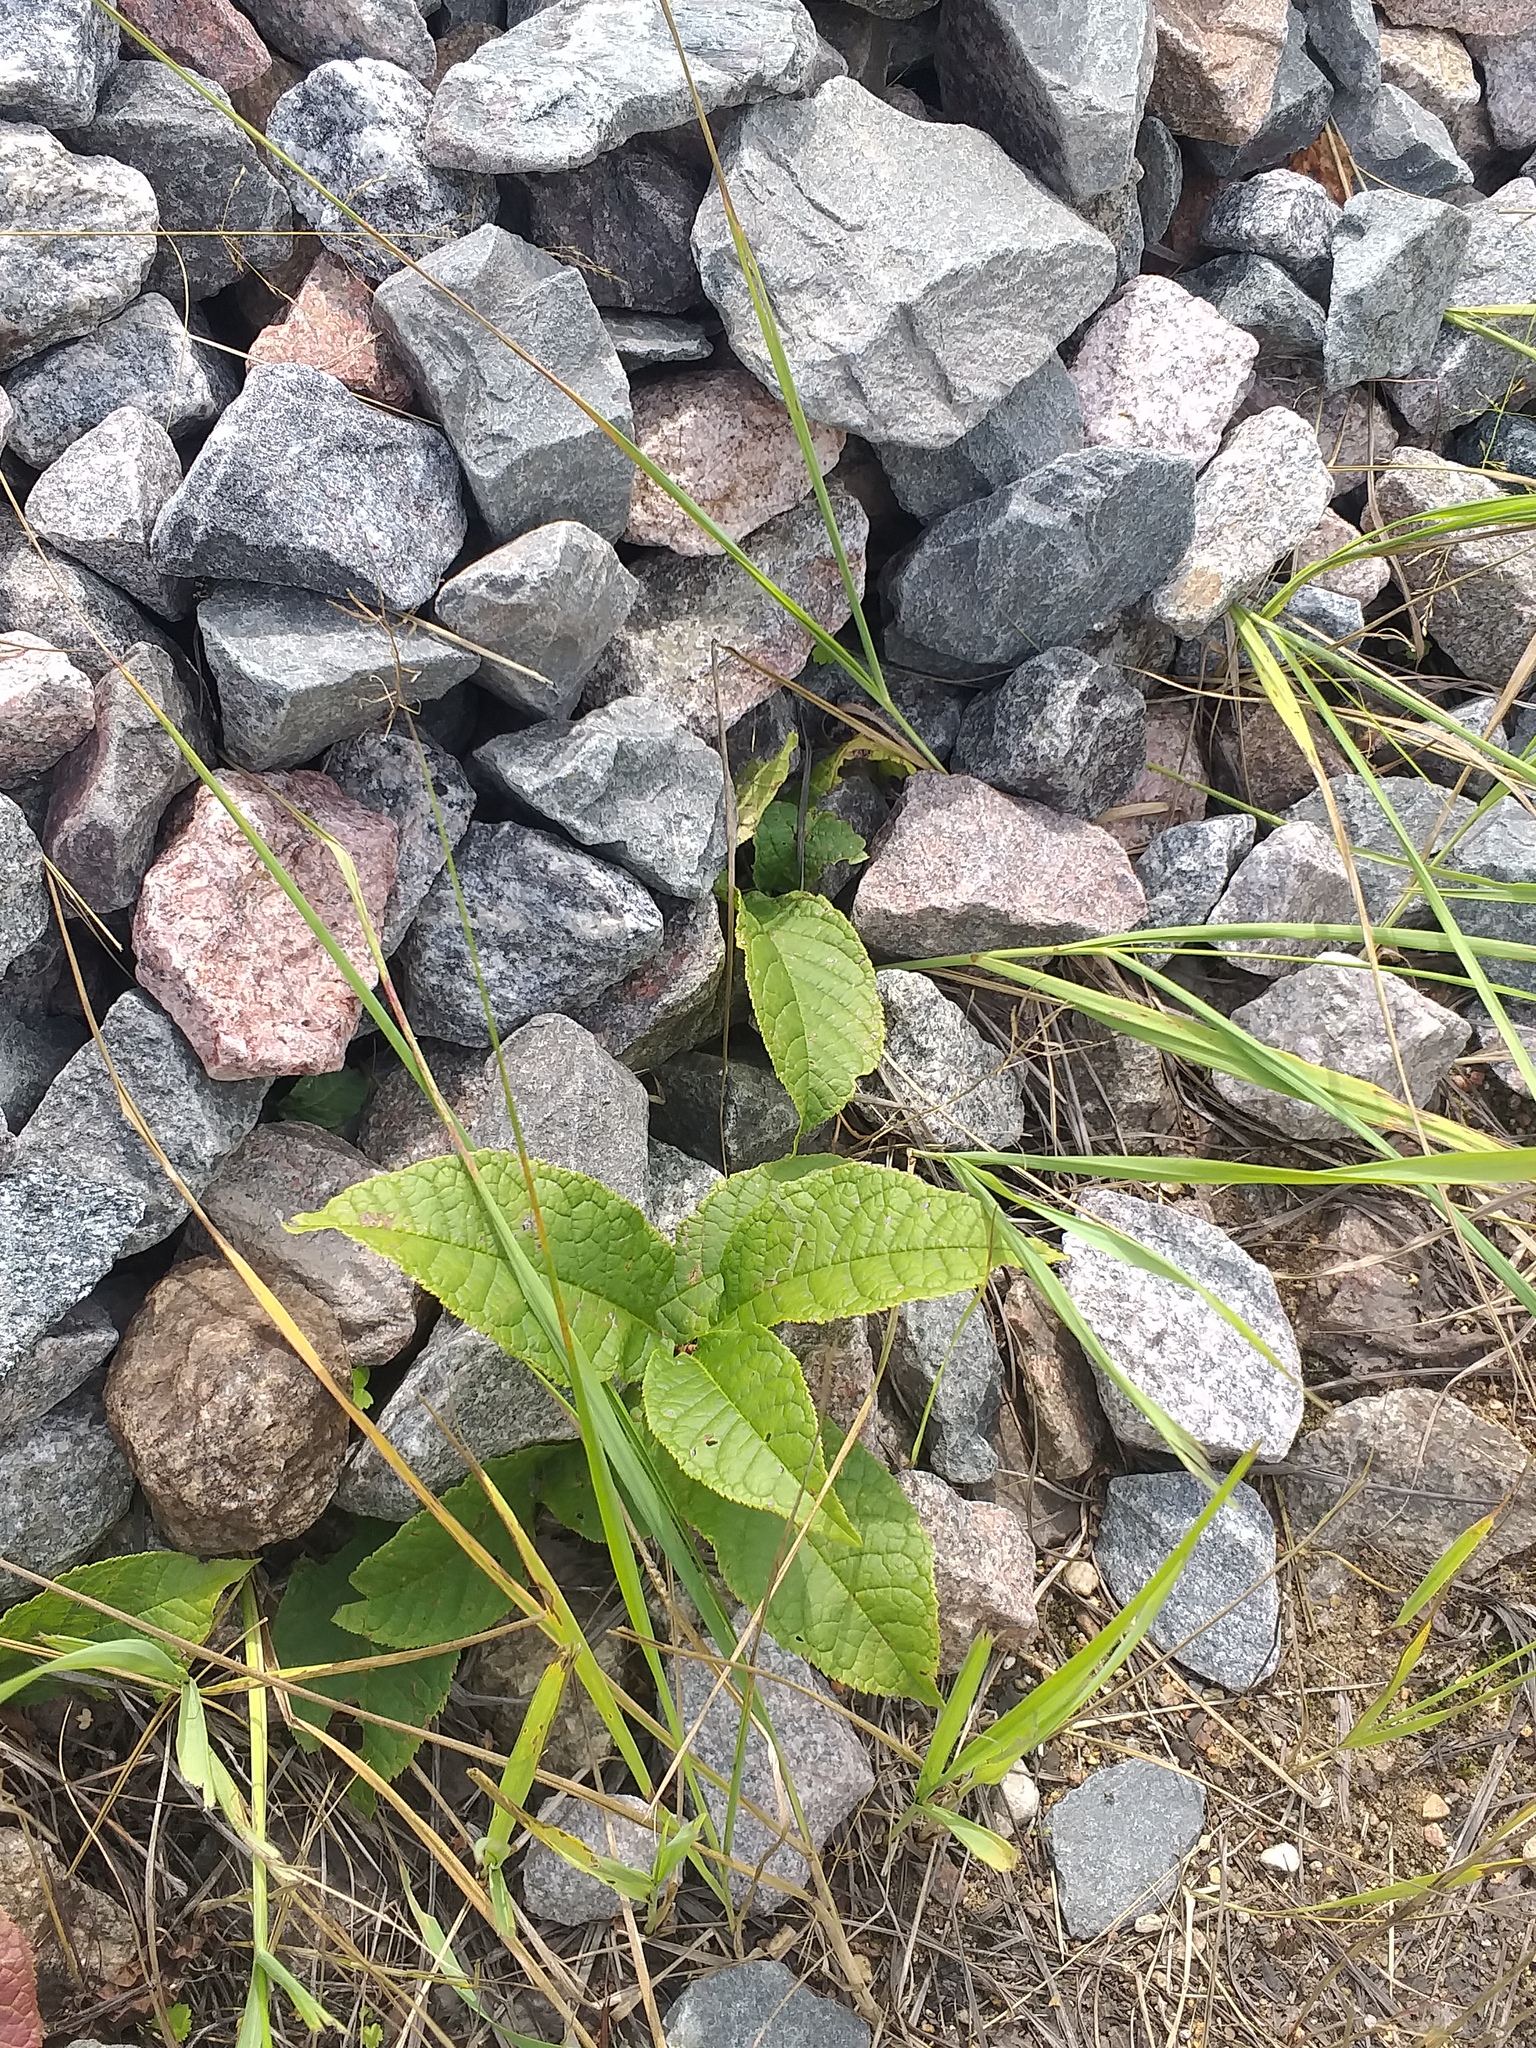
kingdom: Plantae
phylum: Tracheophyta
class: Magnoliopsida
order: Rosales
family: Rosaceae
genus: Prunus
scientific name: Prunus padus
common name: Bird cherry
